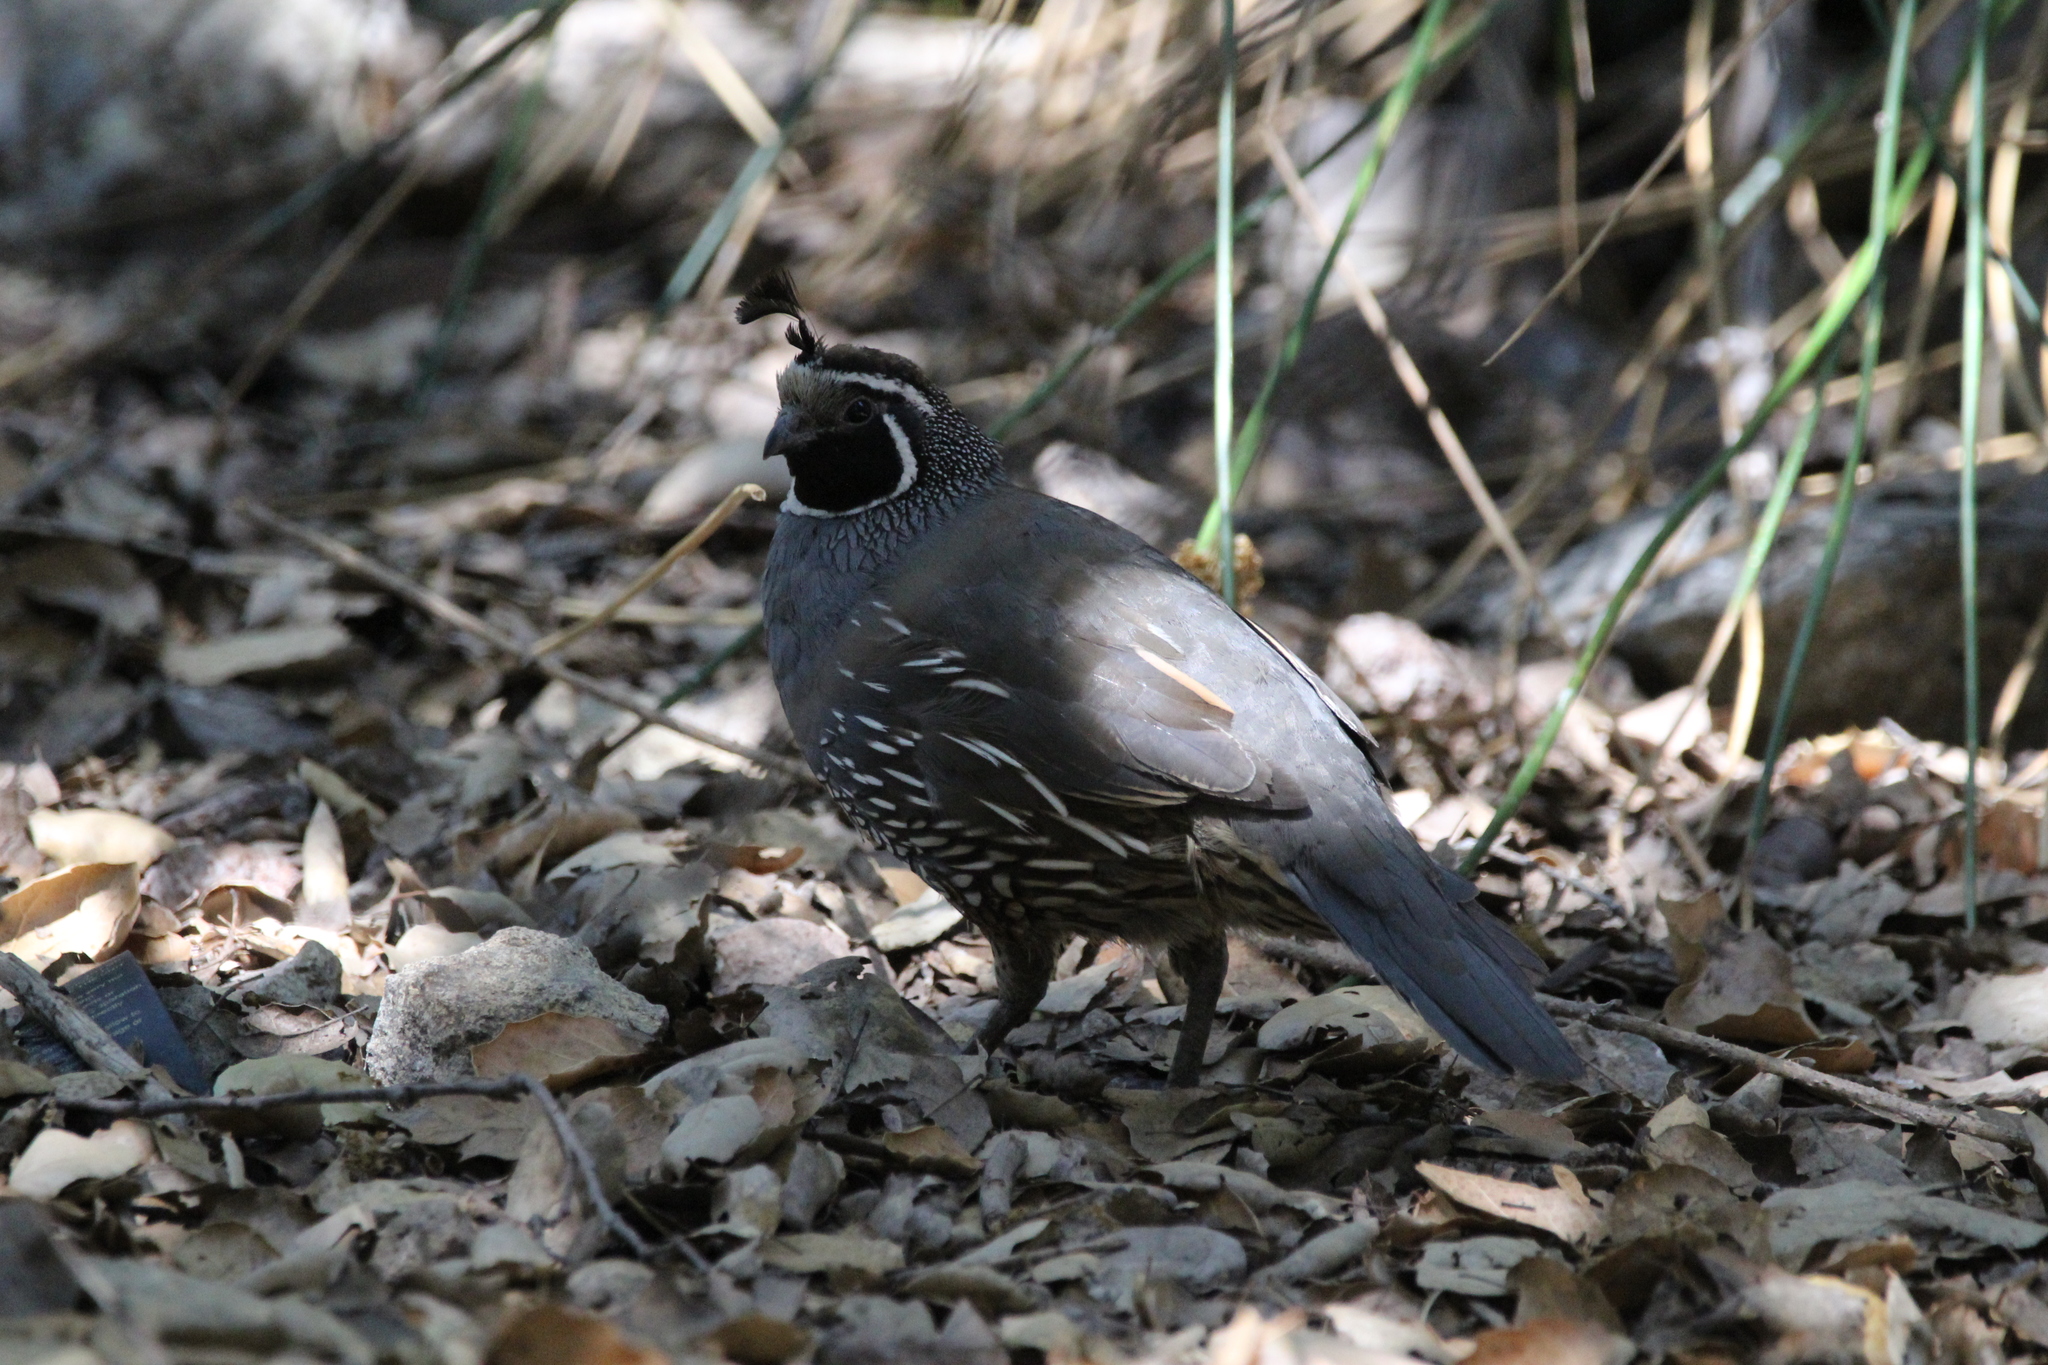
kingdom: Animalia
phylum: Chordata
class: Aves
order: Galliformes
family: Odontophoridae
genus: Callipepla
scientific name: Callipepla californica
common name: California quail
